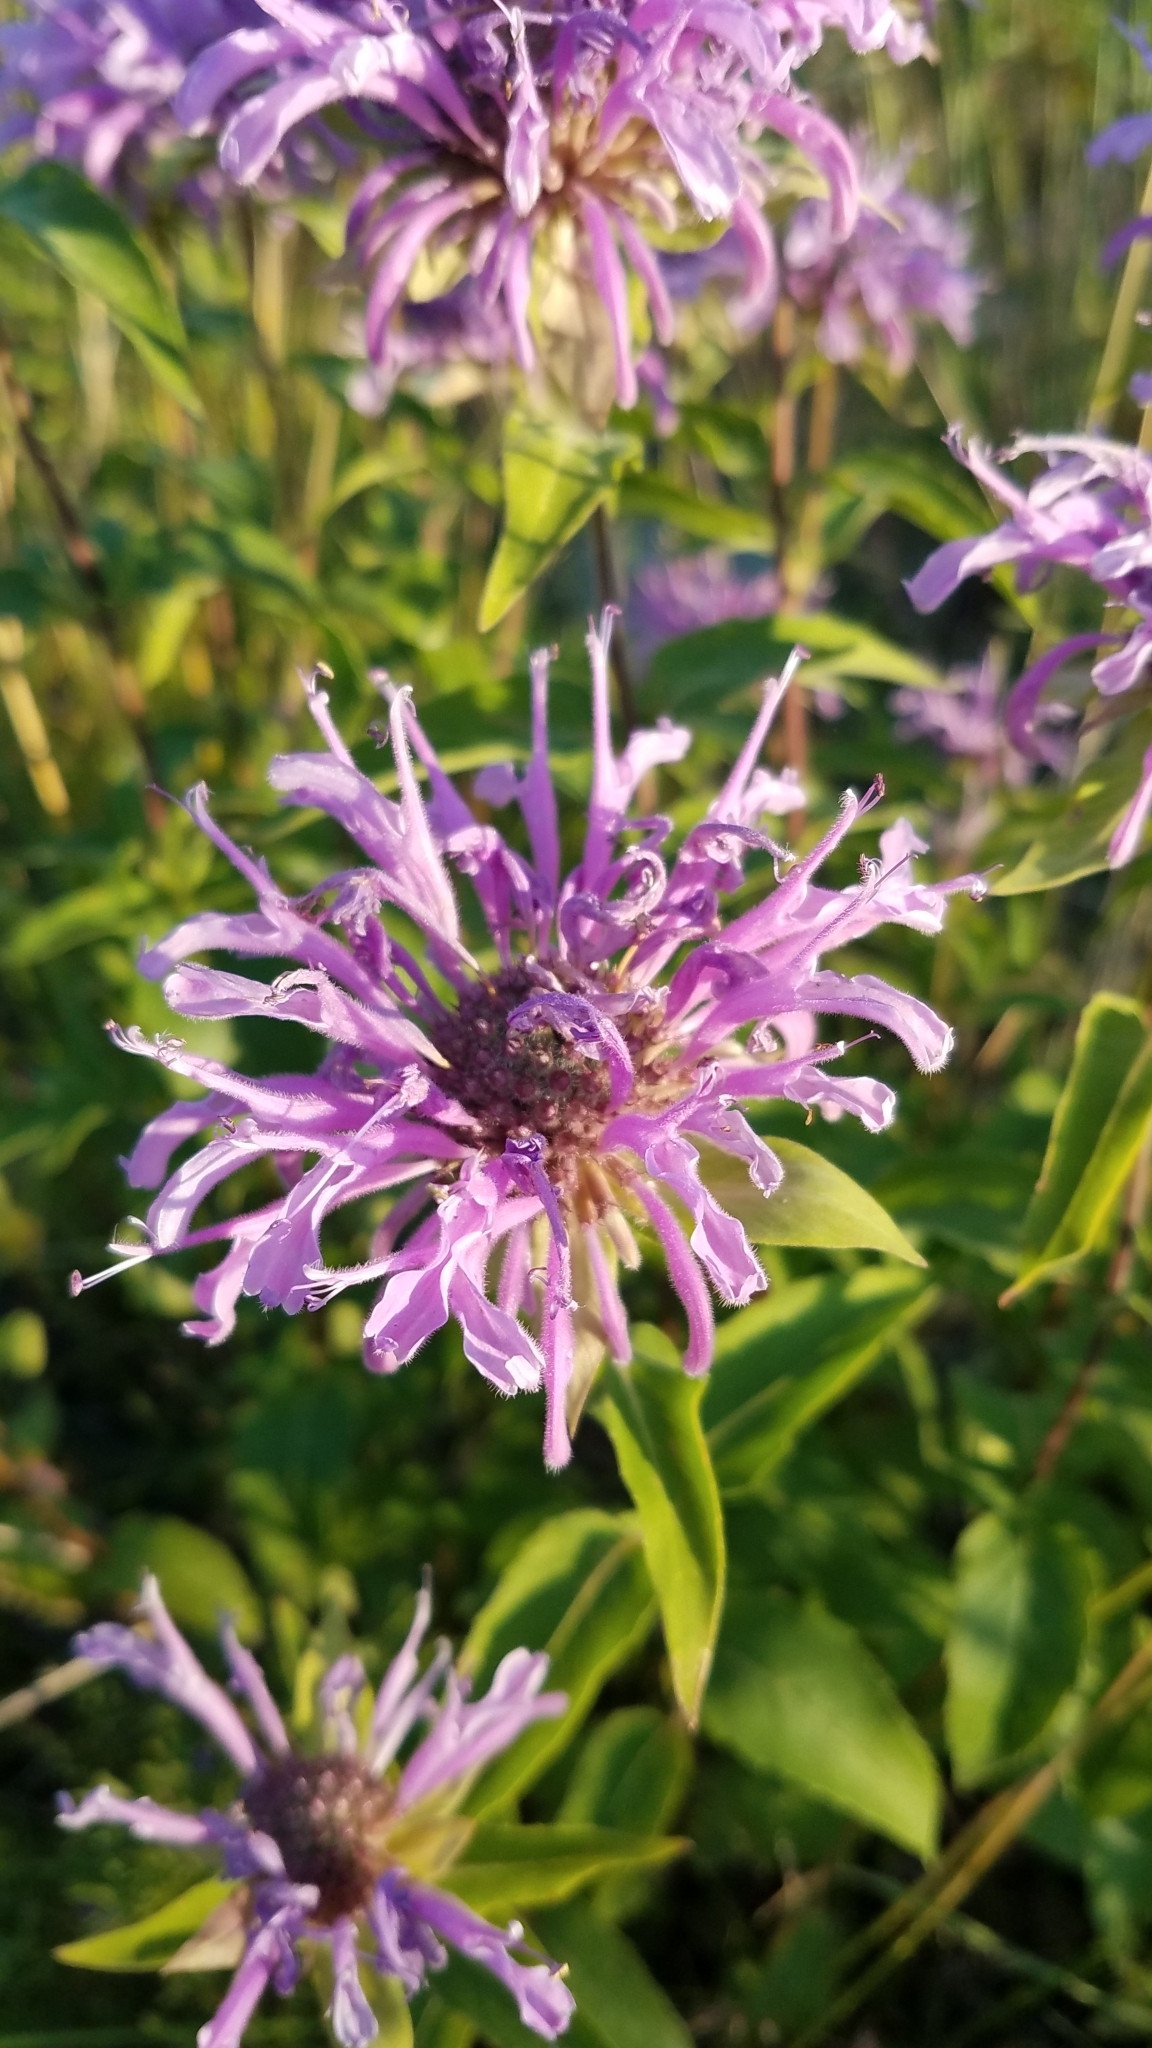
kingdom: Plantae
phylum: Tracheophyta
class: Magnoliopsida
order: Lamiales
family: Lamiaceae
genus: Monarda
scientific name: Monarda fistulosa
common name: Purple beebalm
